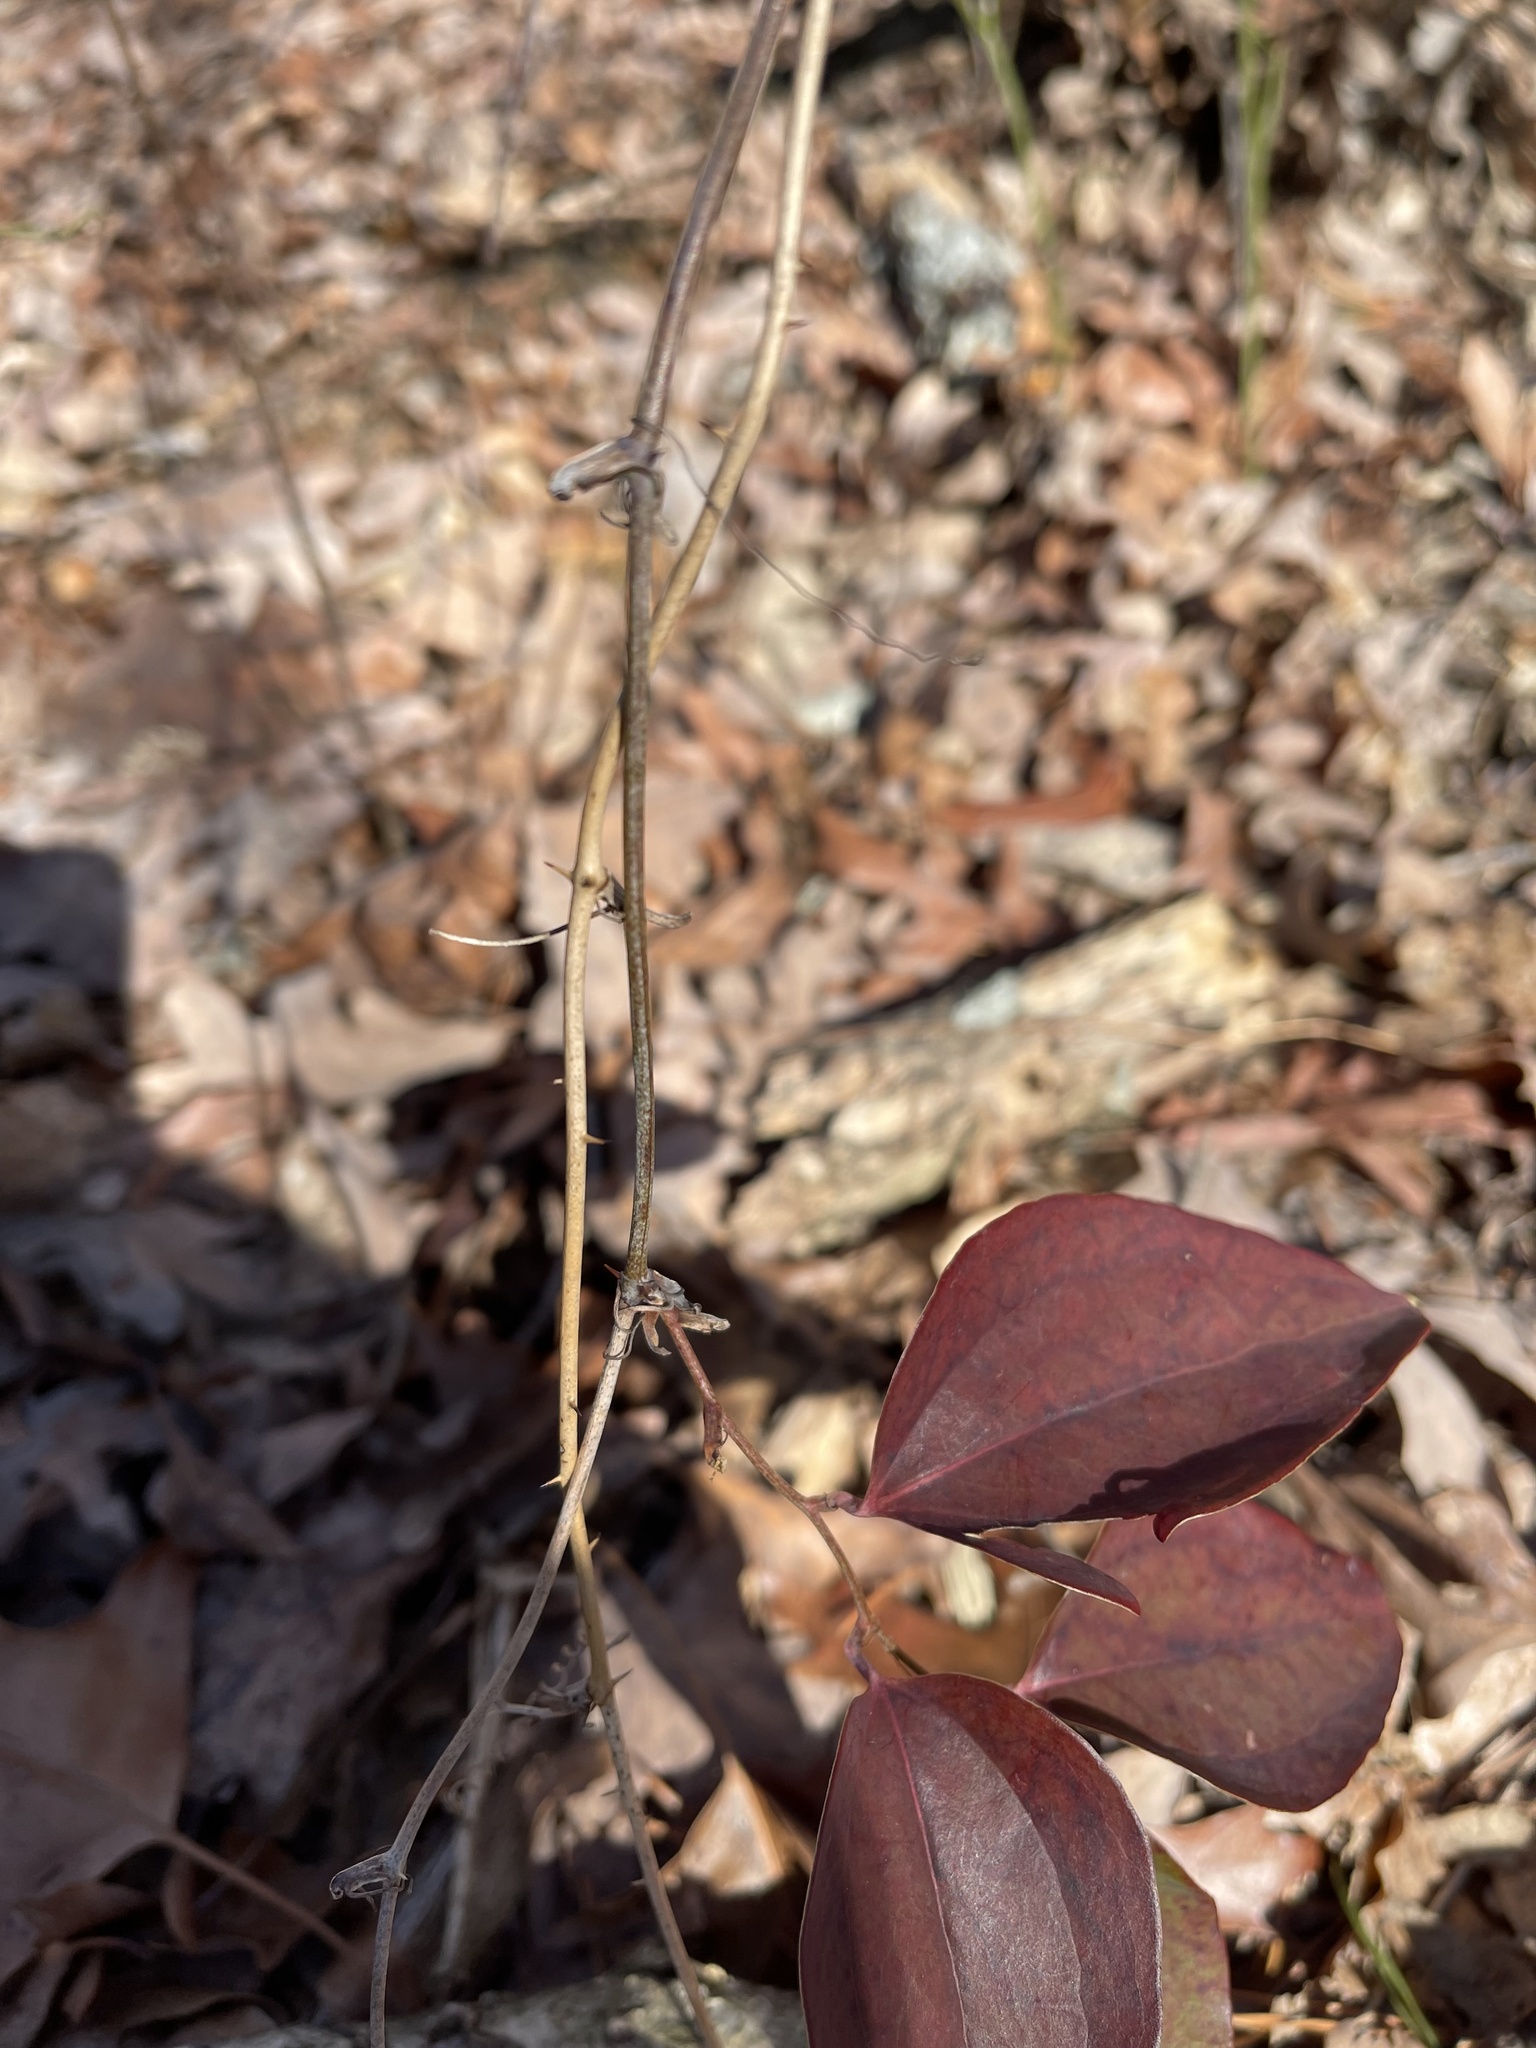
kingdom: Plantae
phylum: Tracheophyta
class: Liliopsida
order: Liliales
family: Smilacaceae
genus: Smilax
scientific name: Smilax glauca
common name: Cat greenbrier
